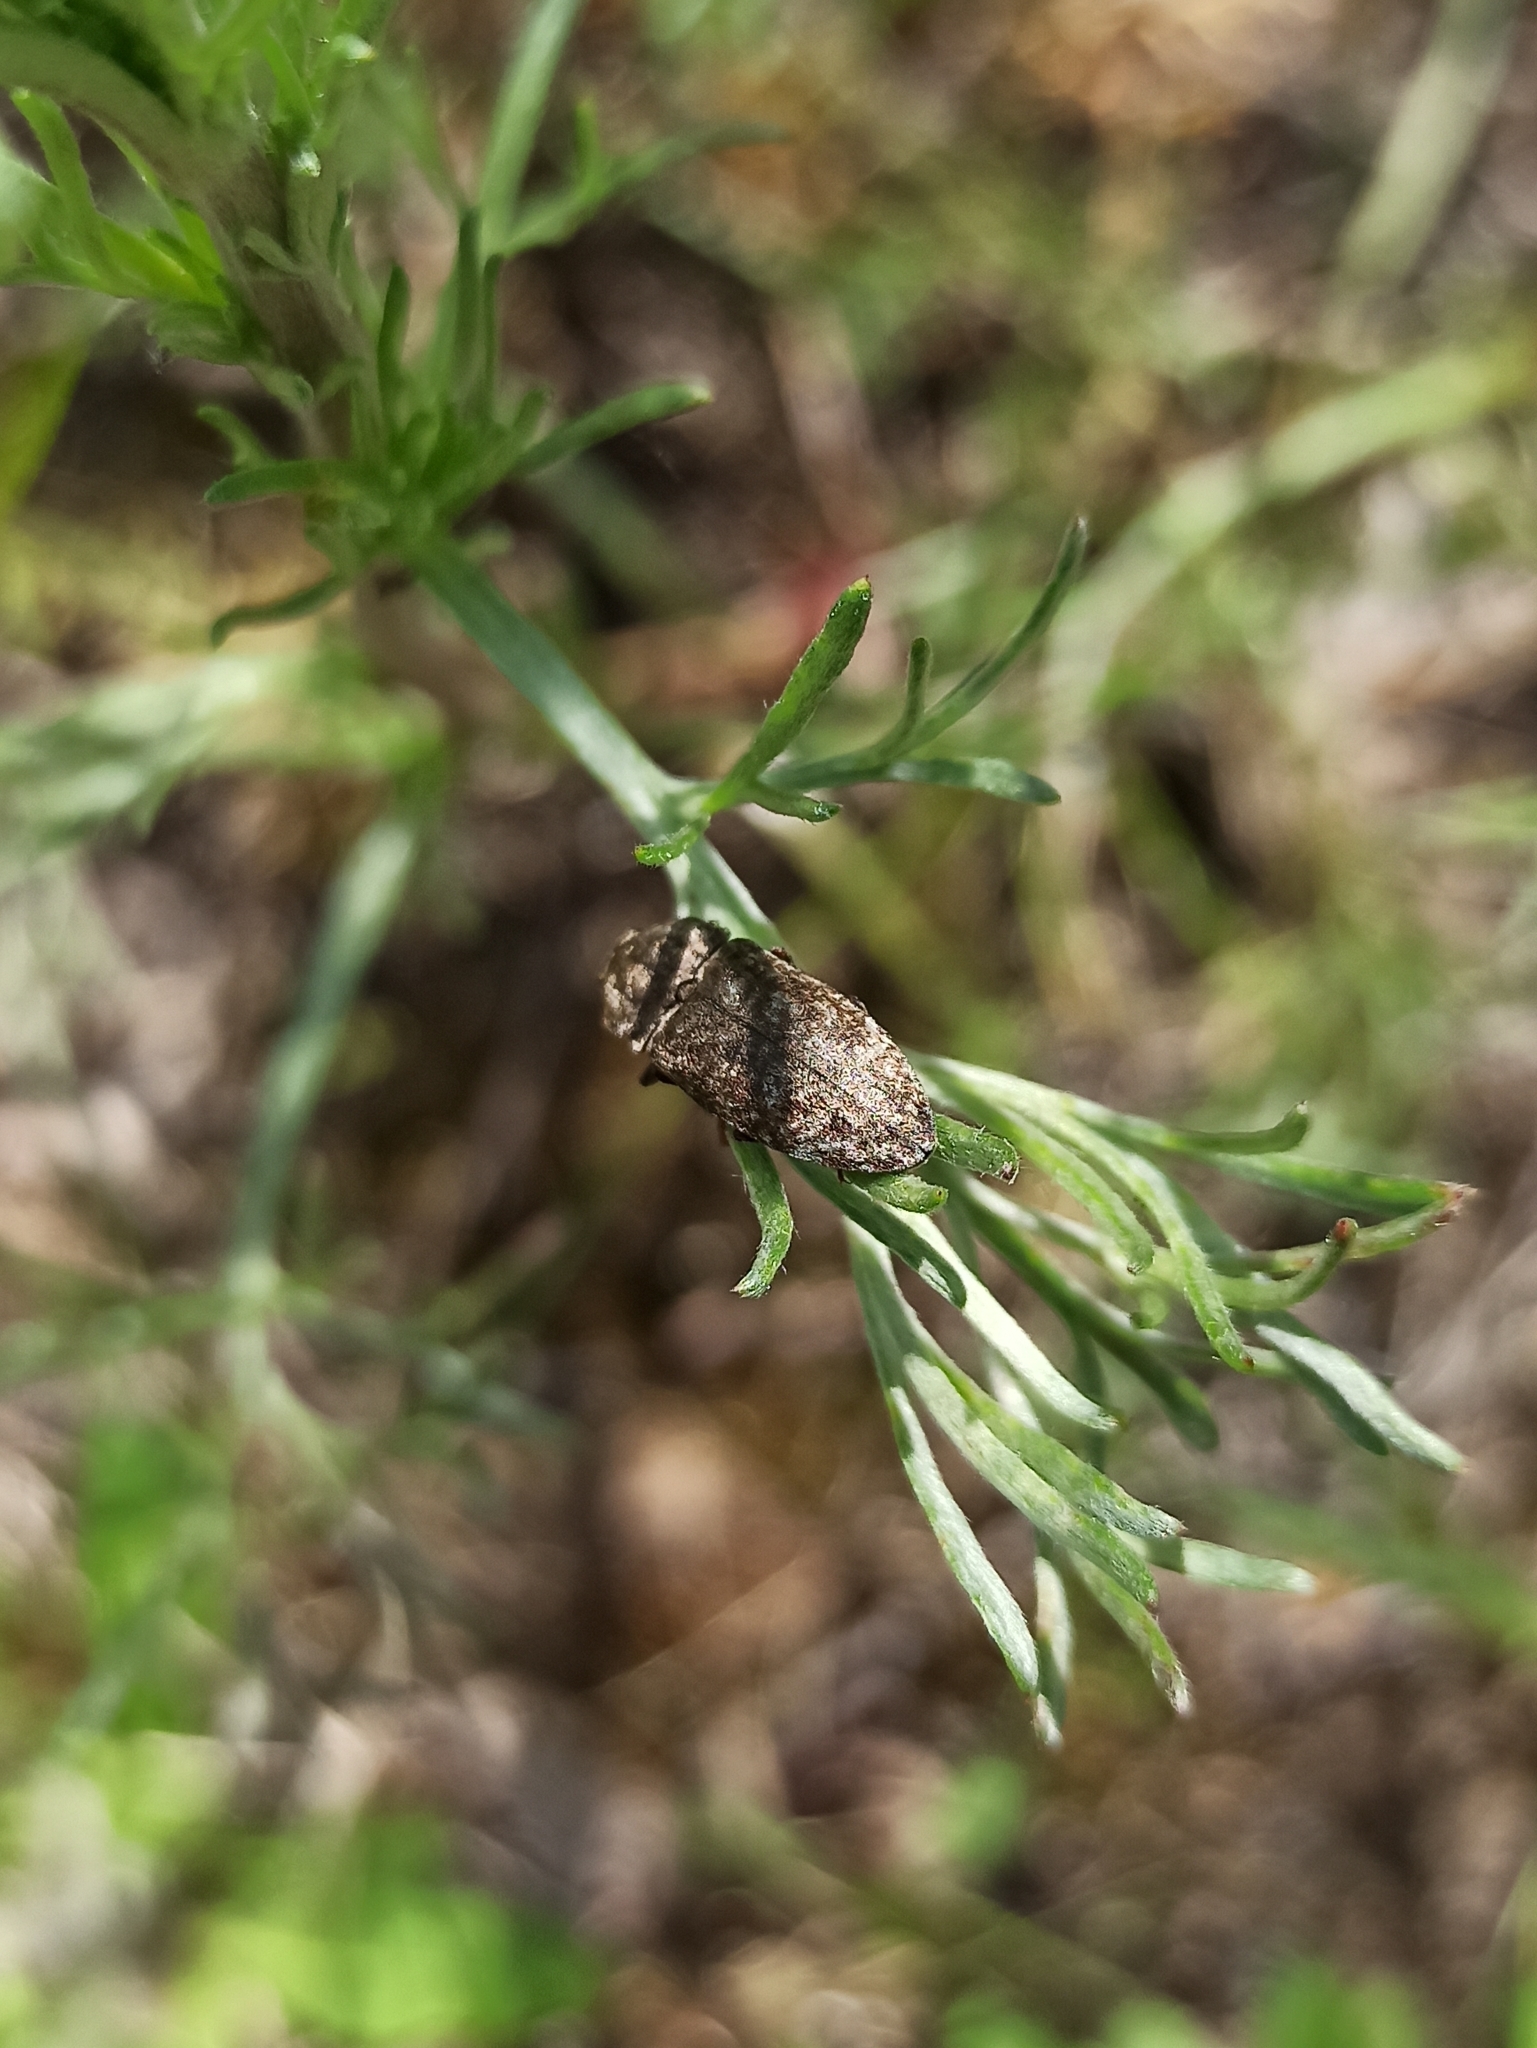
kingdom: Animalia
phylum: Arthropoda
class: Insecta
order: Coleoptera
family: Elateridae
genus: Agrypnus
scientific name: Agrypnus murinus
